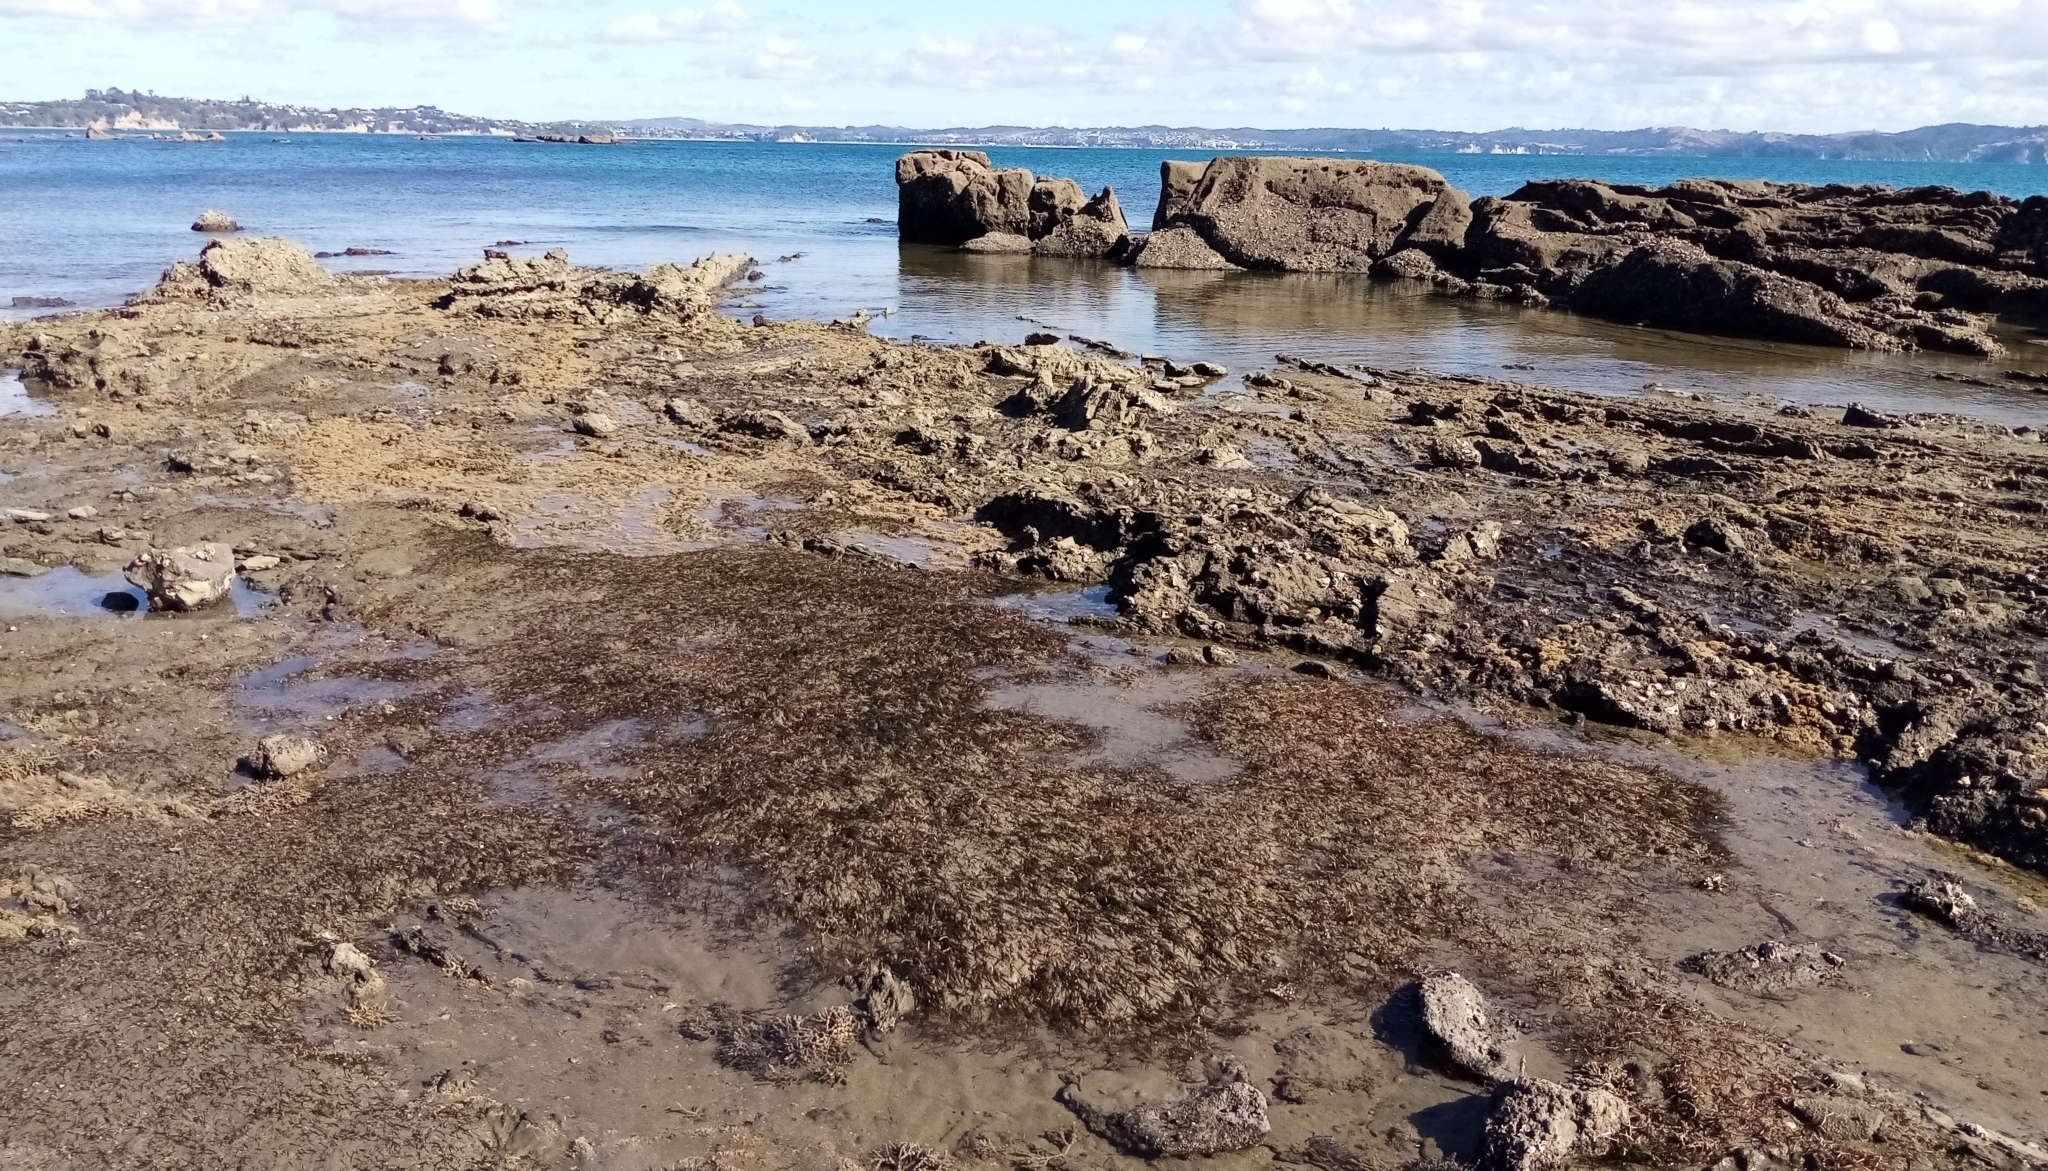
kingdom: Plantae
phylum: Tracheophyta
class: Liliopsida
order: Alismatales
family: Zosteraceae
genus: Zostera
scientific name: Zostera novazelandica
